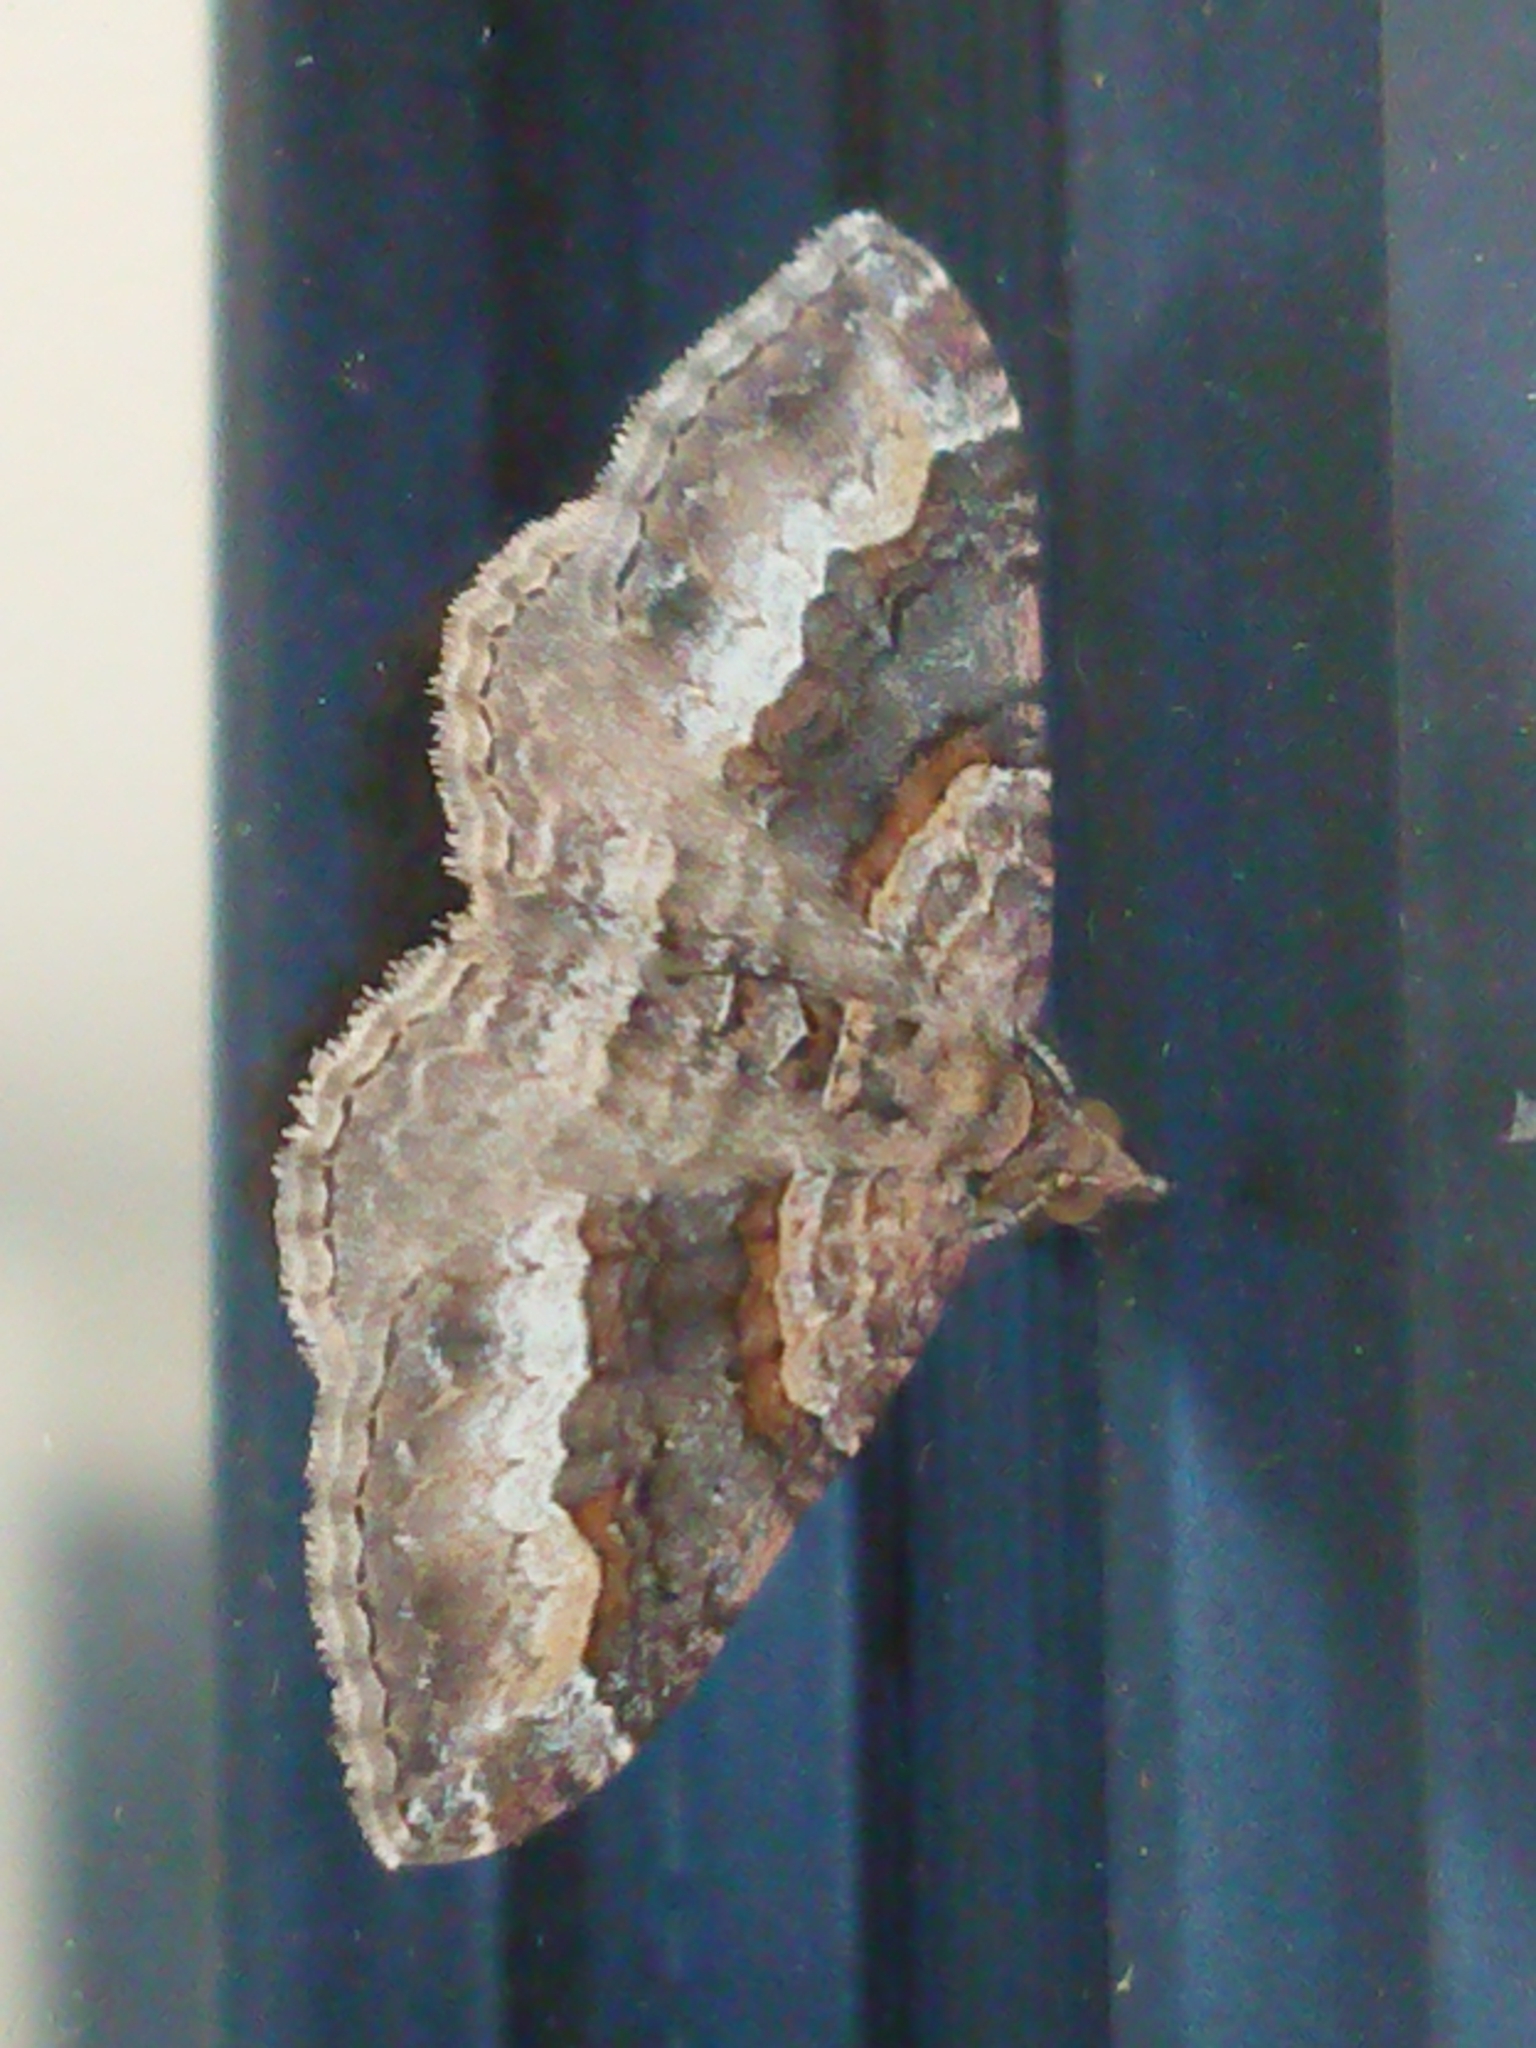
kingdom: Animalia
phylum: Arthropoda
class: Insecta
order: Lepidoptera
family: Geometridae
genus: Epyaxa
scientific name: Epyaxa lucidata
